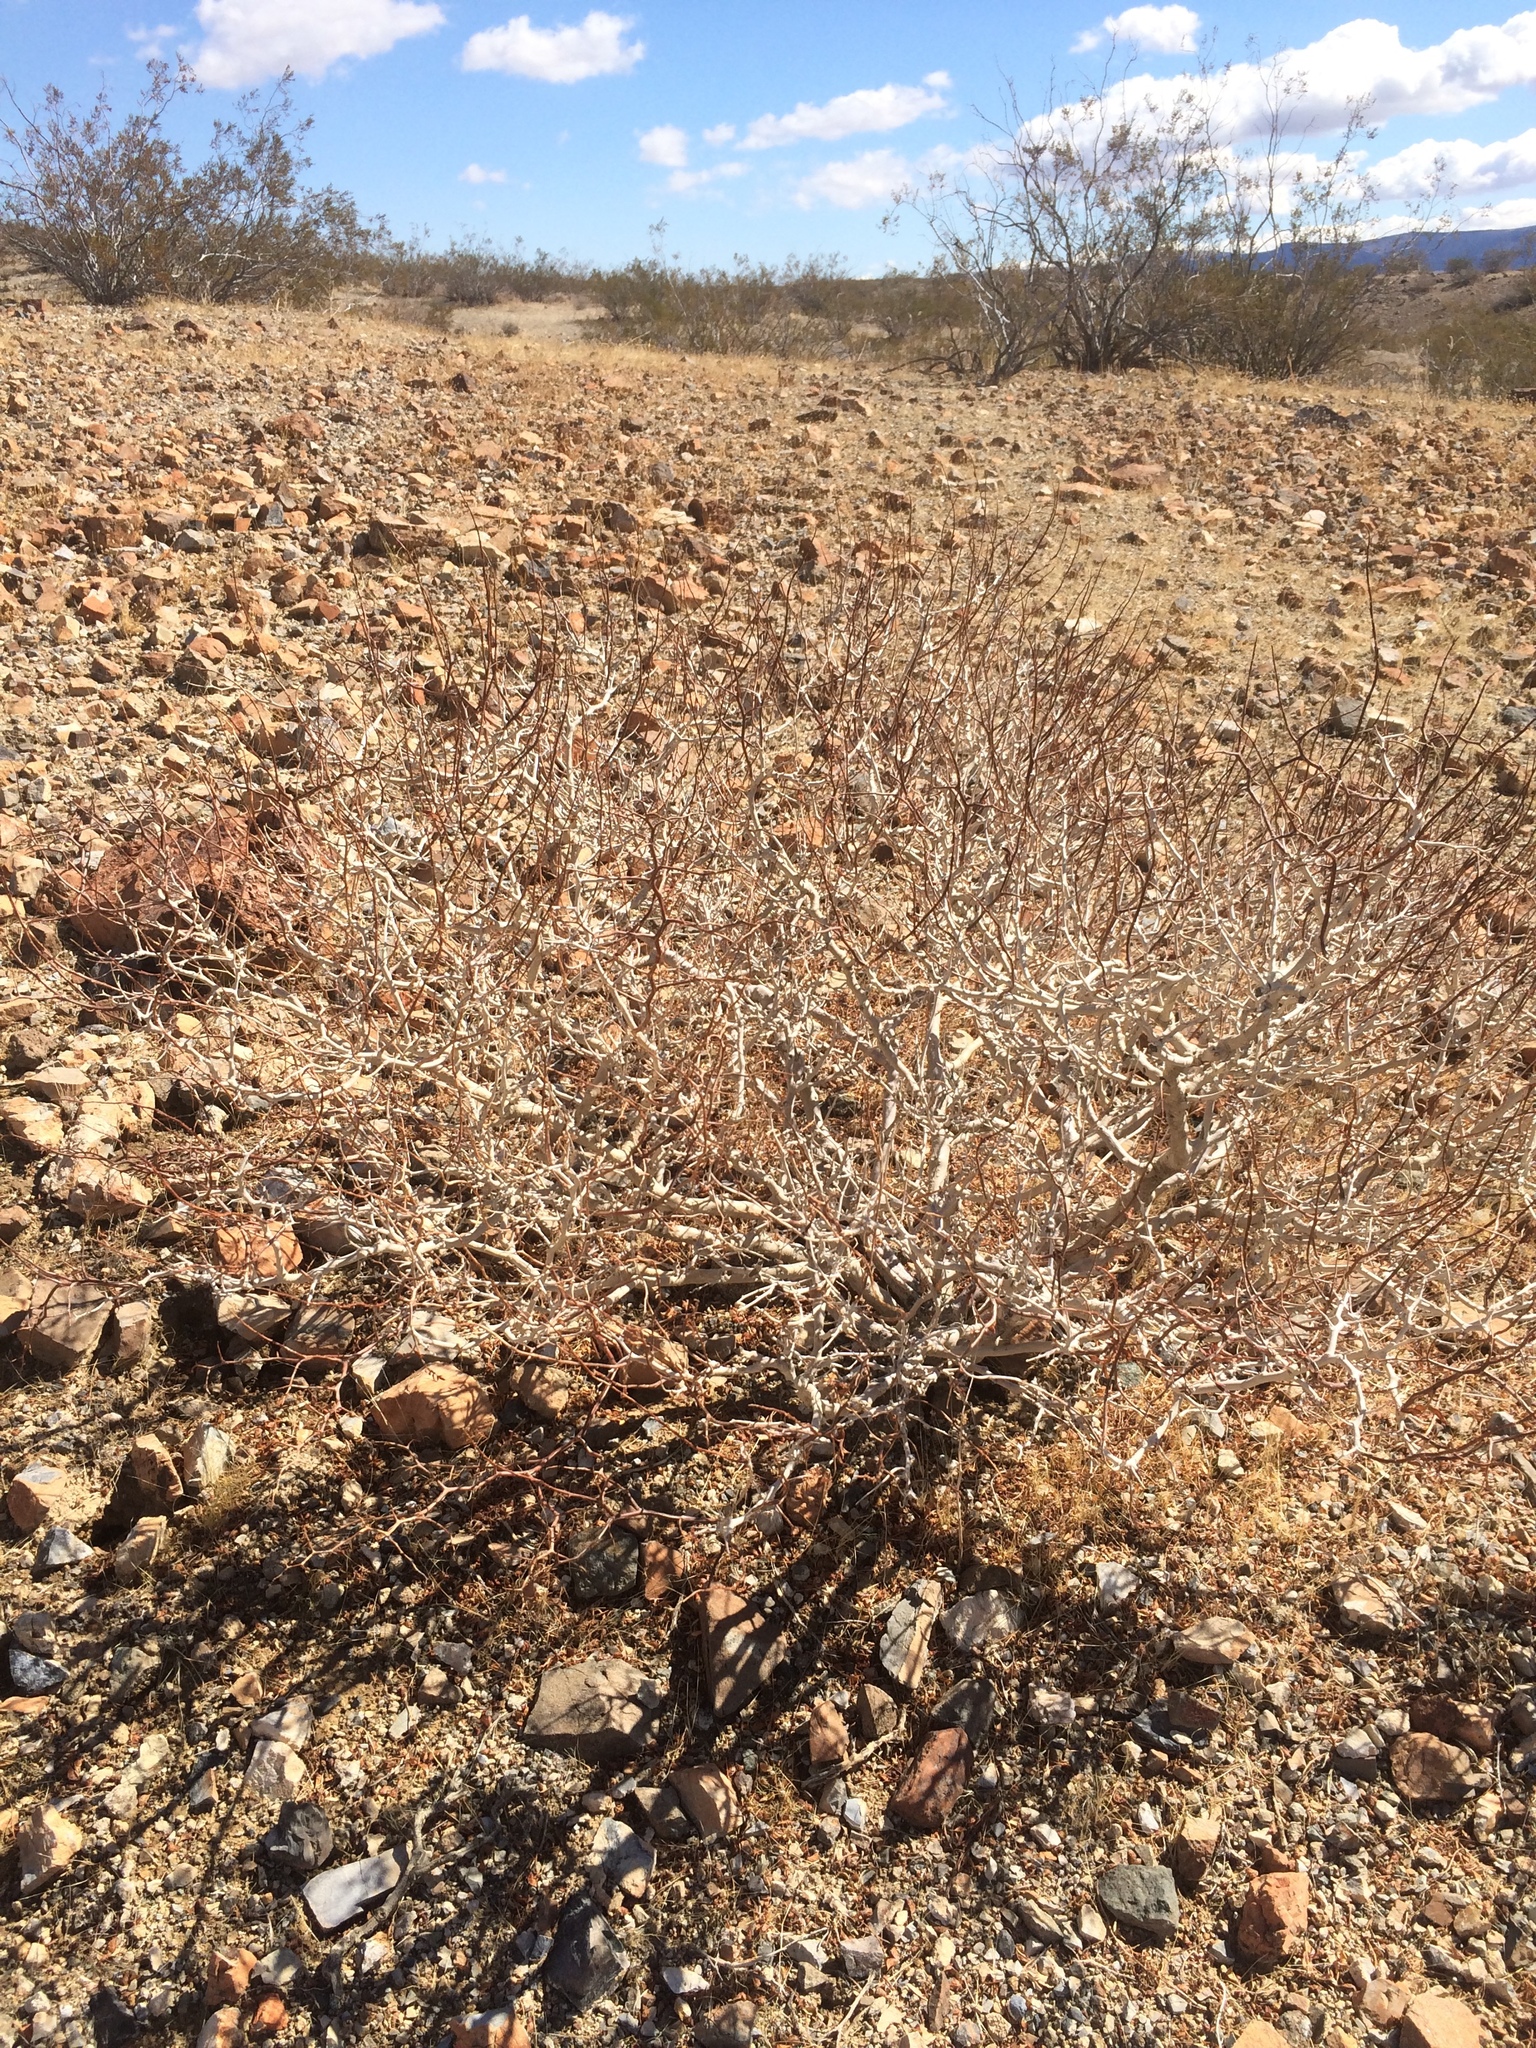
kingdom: Plantae
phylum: Tracheophyta
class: Magnoliopsida
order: Fabales
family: Fabaceae
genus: Psorothamnus
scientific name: Psorothamnus arborescens
